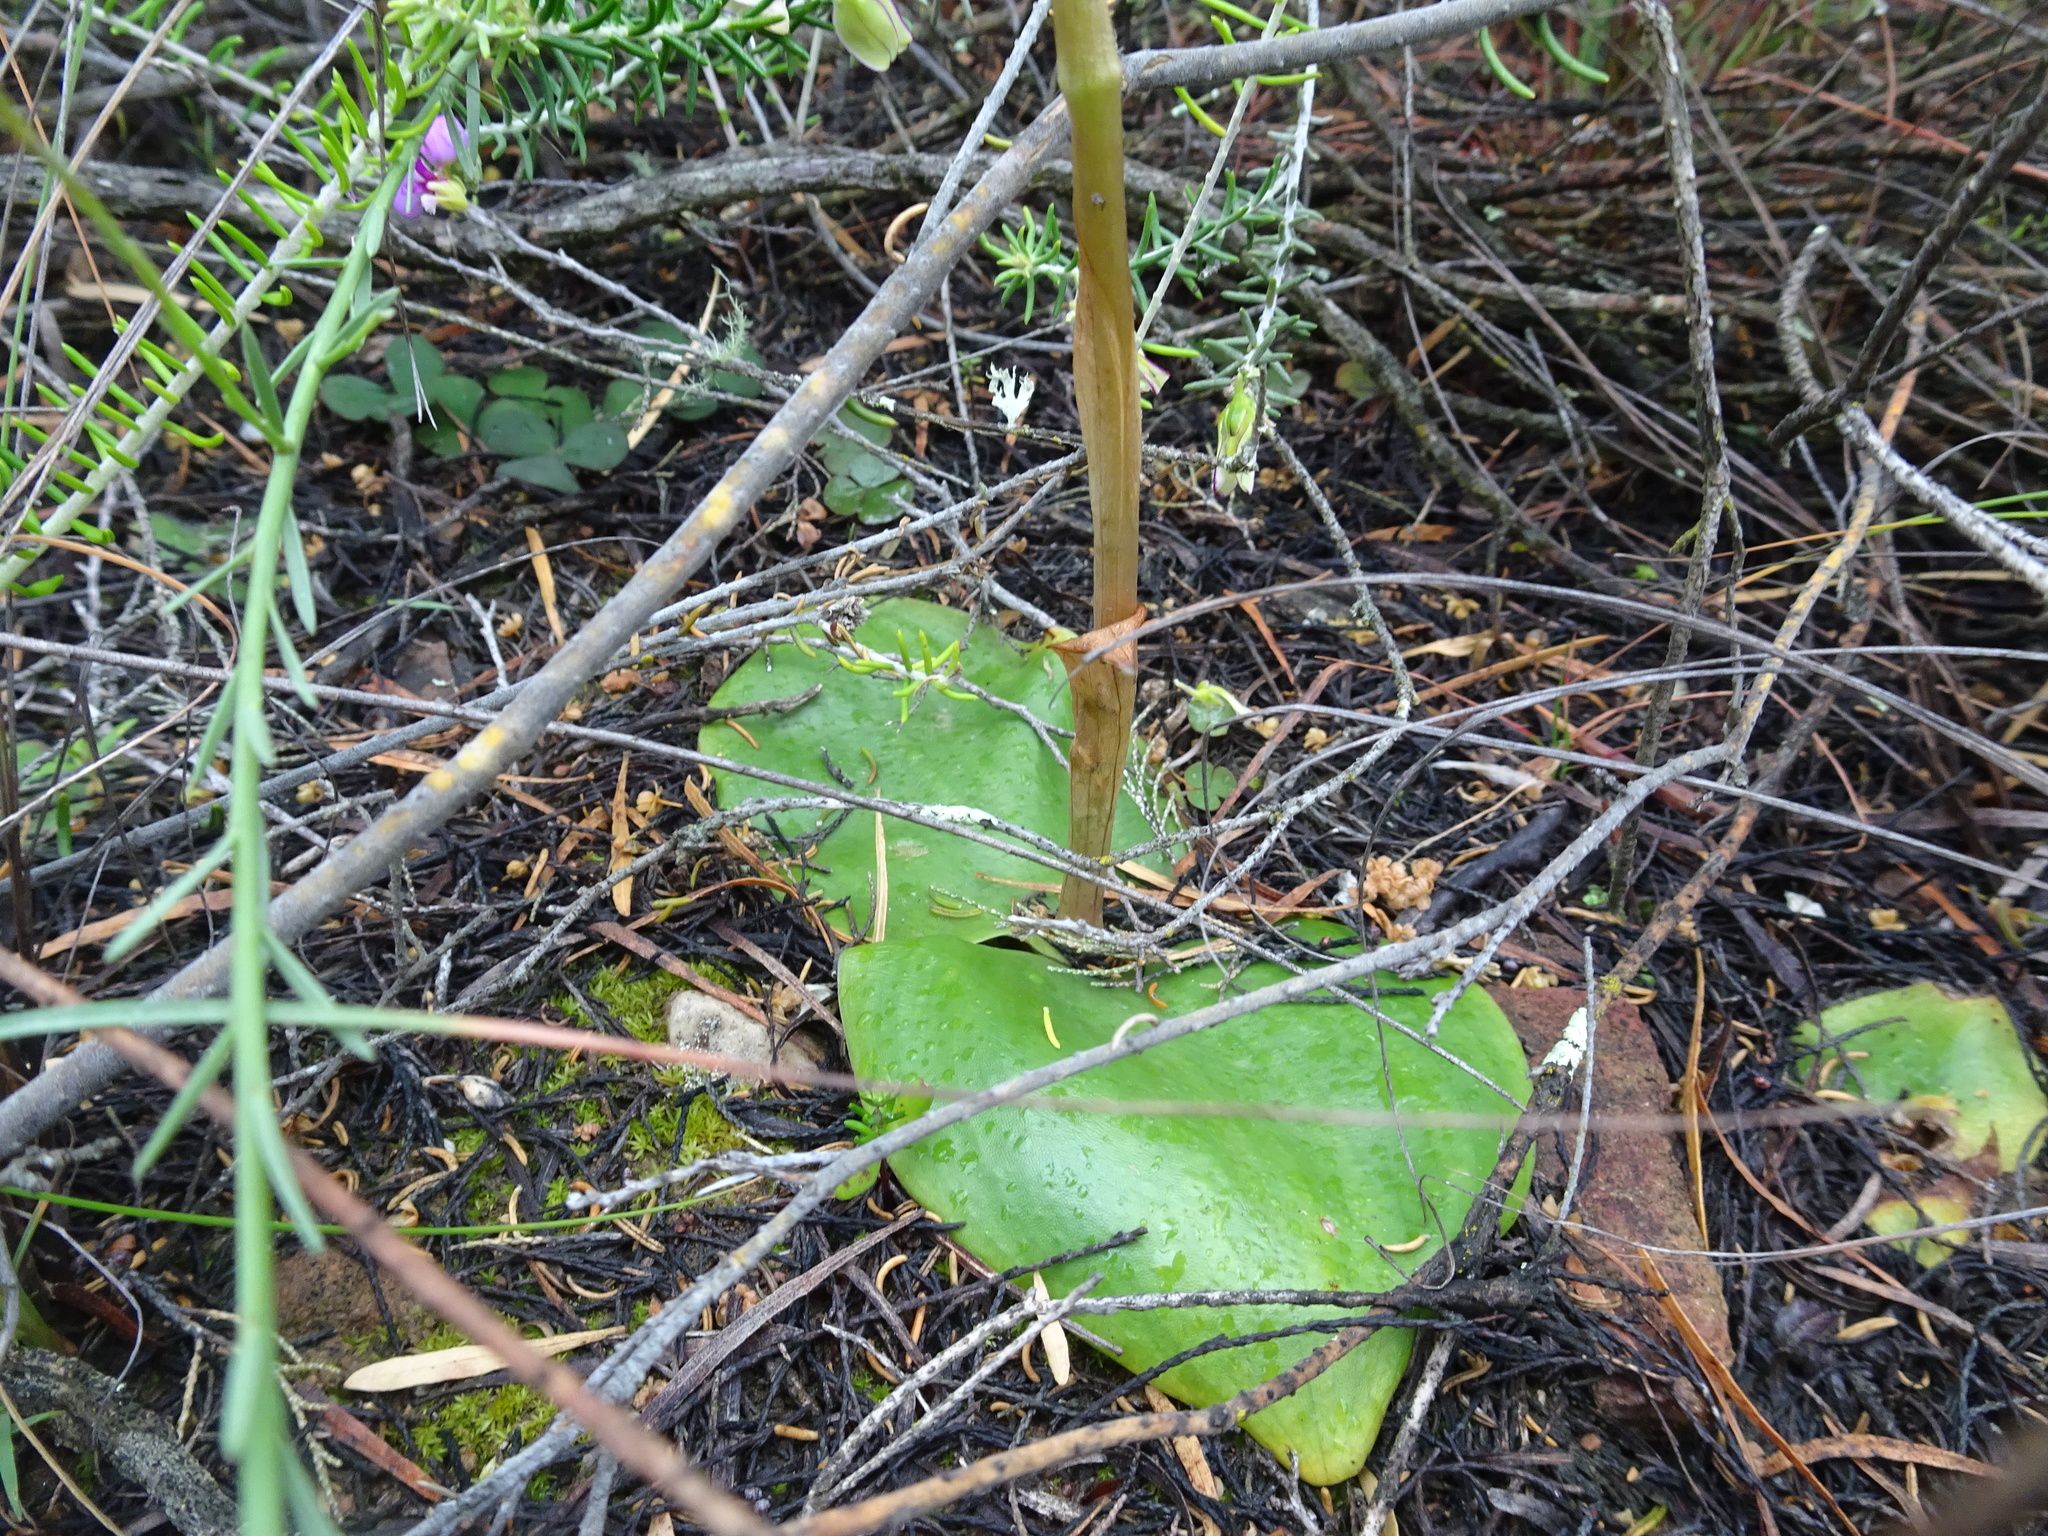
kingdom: Plantae
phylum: Tracheophyta
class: Liliopsida
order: Asparagales
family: Orchidaceae
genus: Satyrium
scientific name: Satyrium erectum
